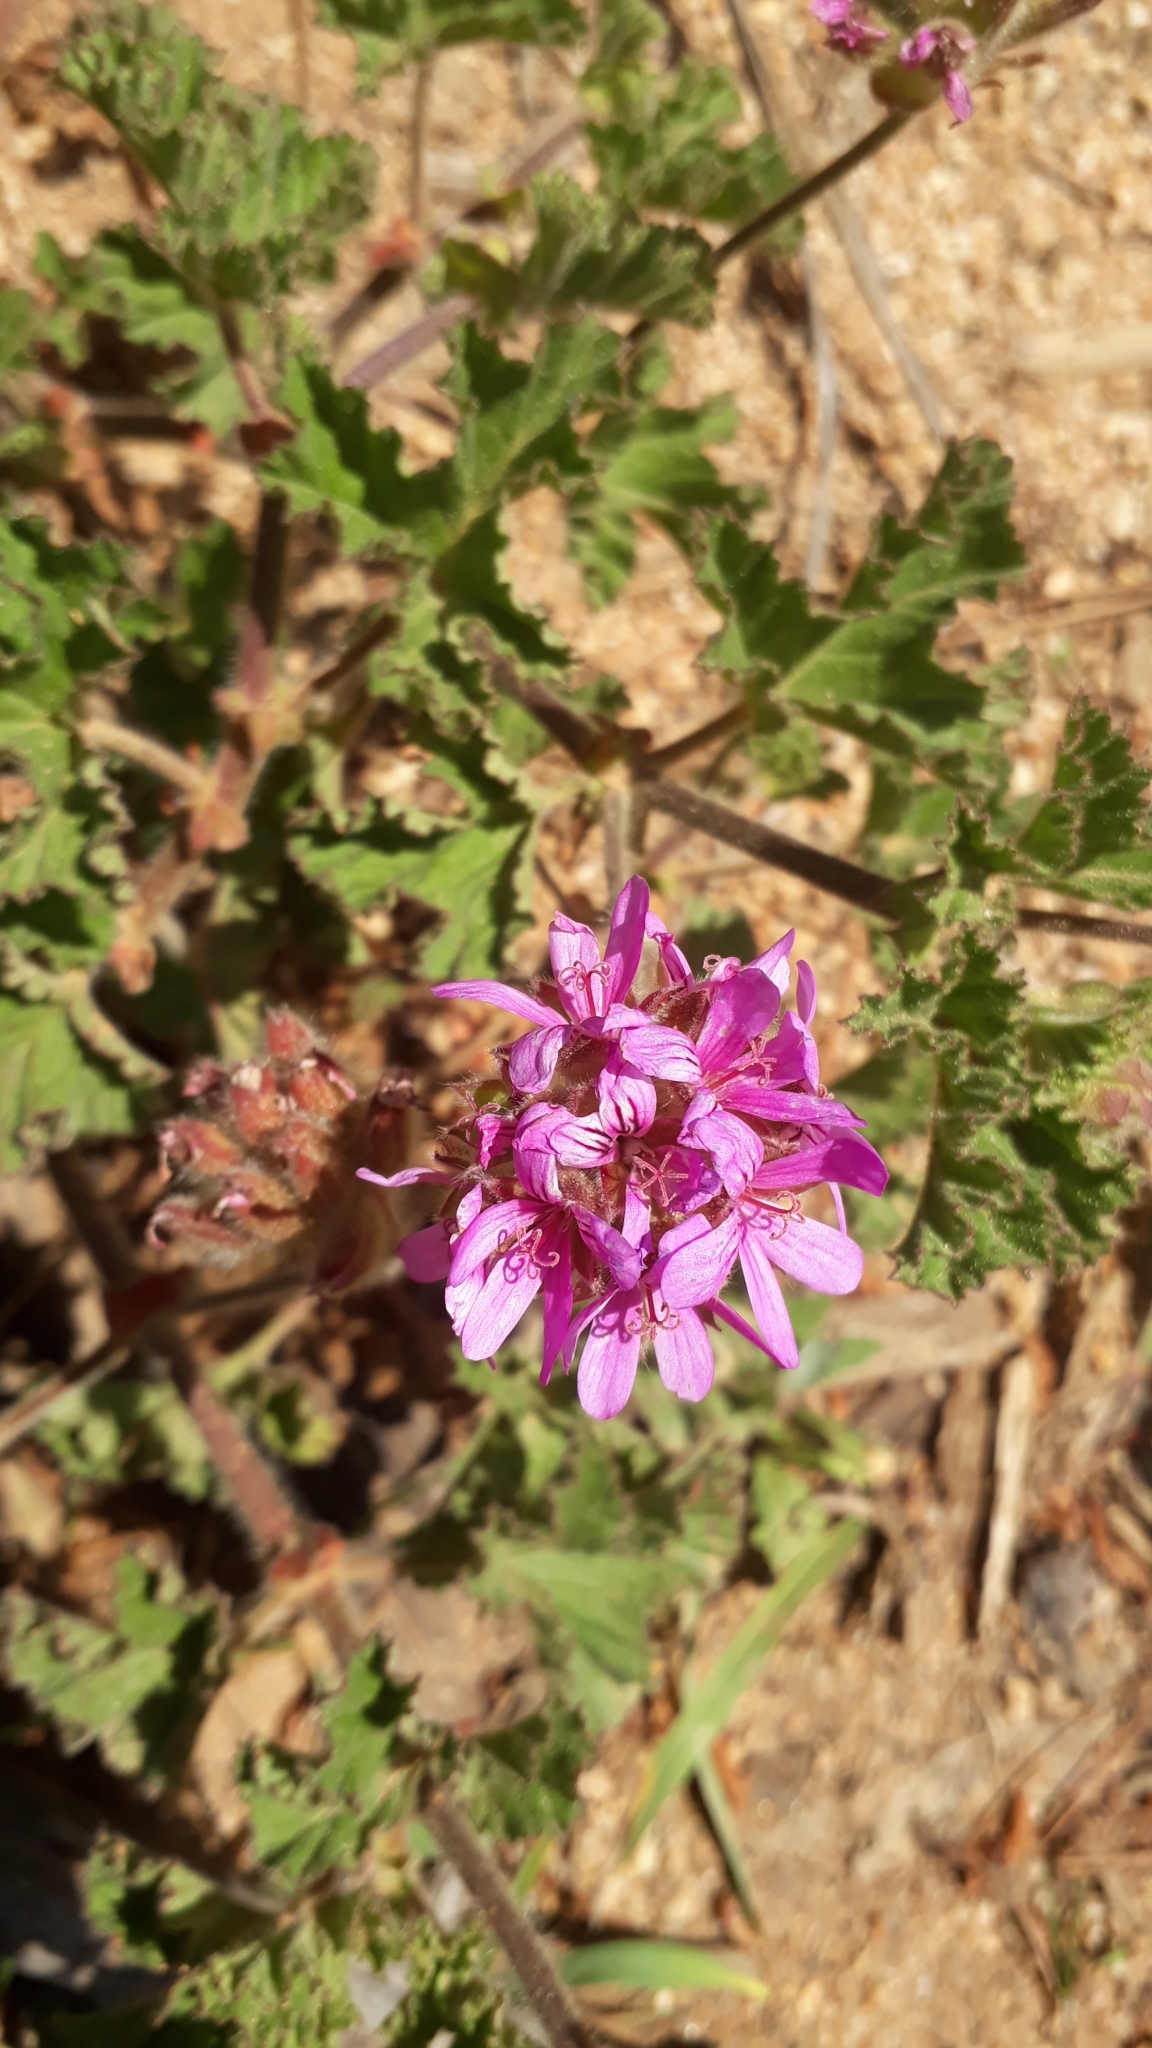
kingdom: Plantae
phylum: Tracheophyta
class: Magnoliopsida
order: Geraniales
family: Geraniaceae
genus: Pelargonium
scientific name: Pelargonium capitatum
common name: Rose scented geranium
